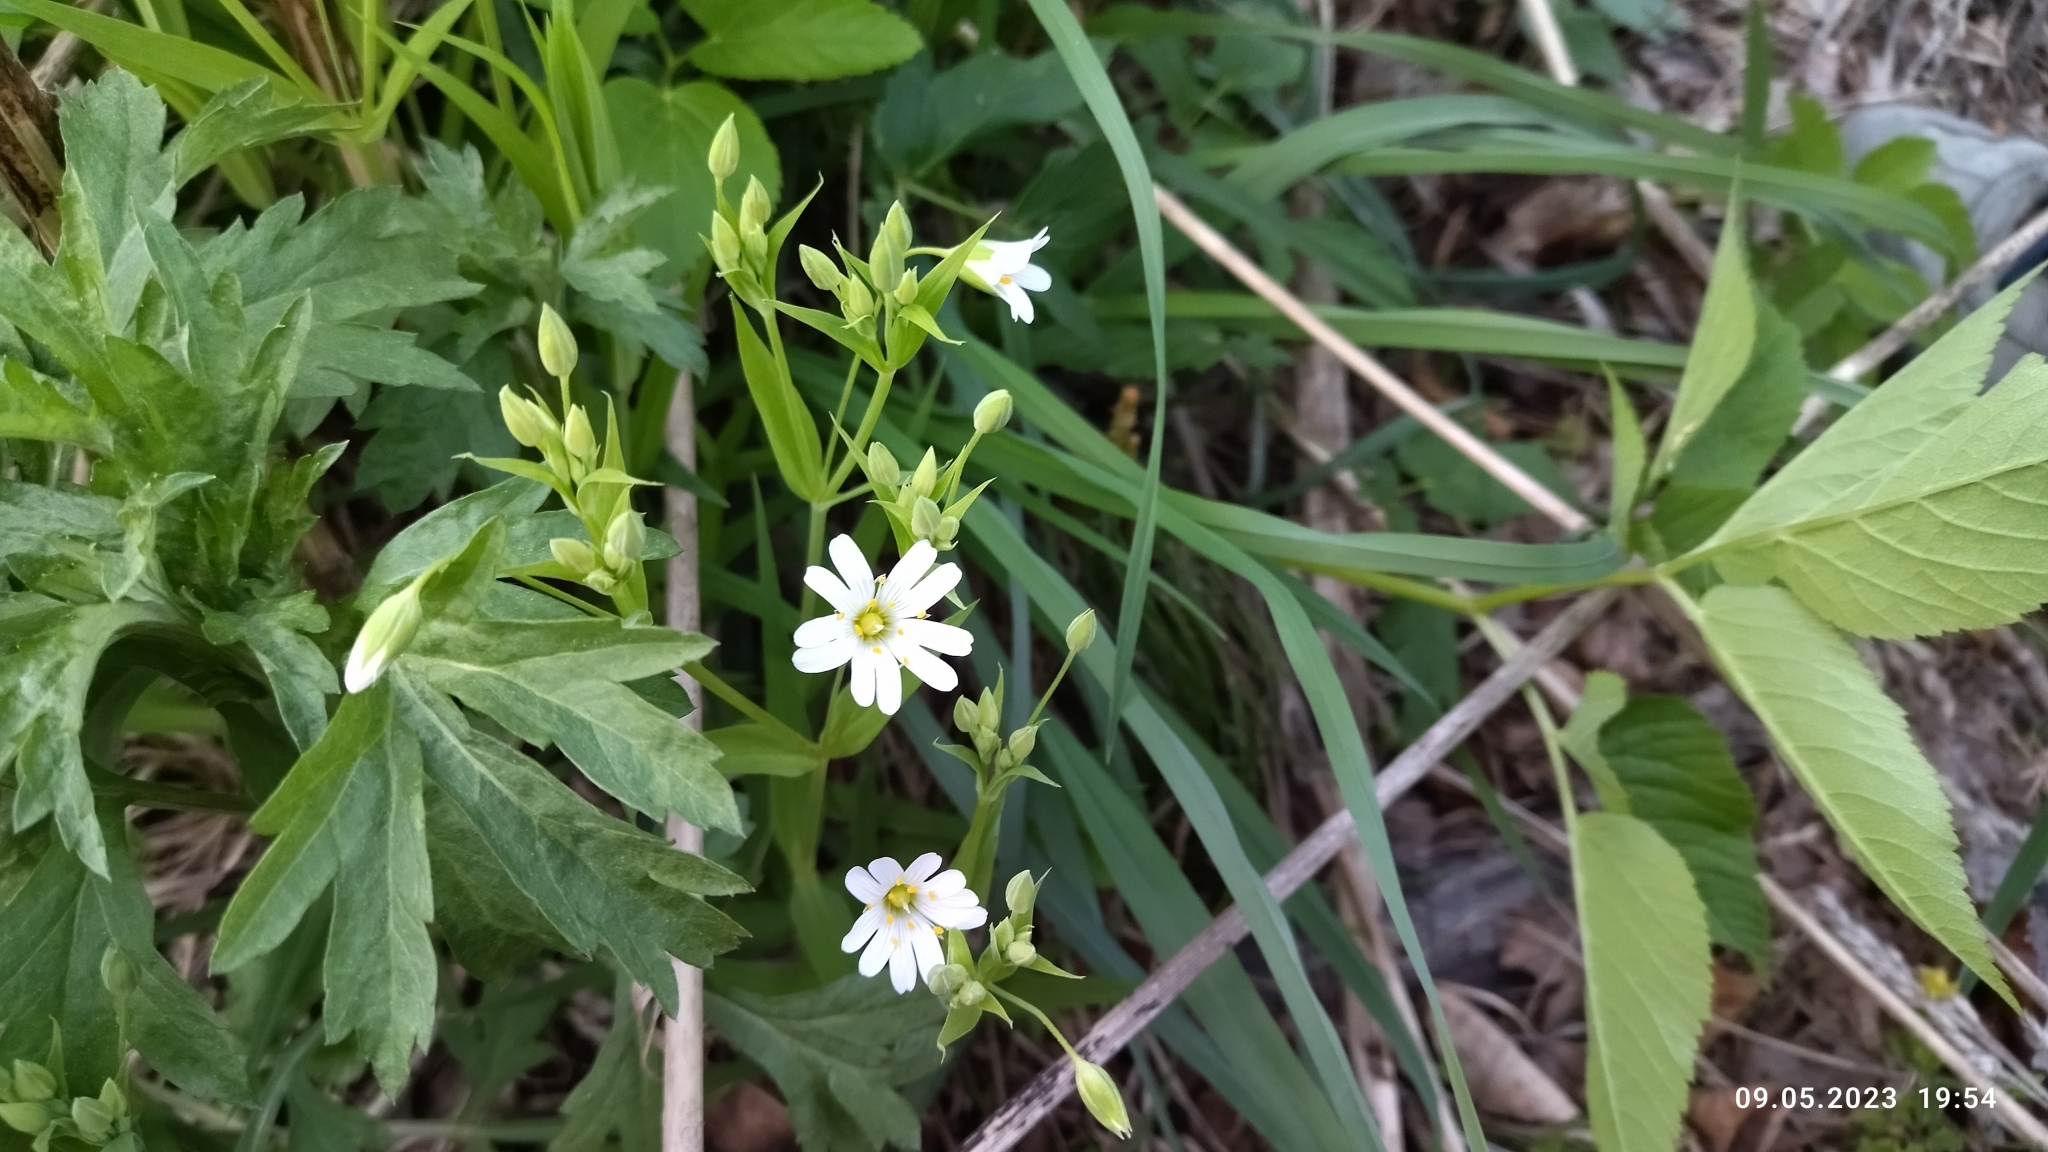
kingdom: Plantae
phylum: Tracheophyta
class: Magnoliopsida
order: Caryophyllales
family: Caryophyllaceae
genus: Rabelera
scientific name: Rabelera holostea
